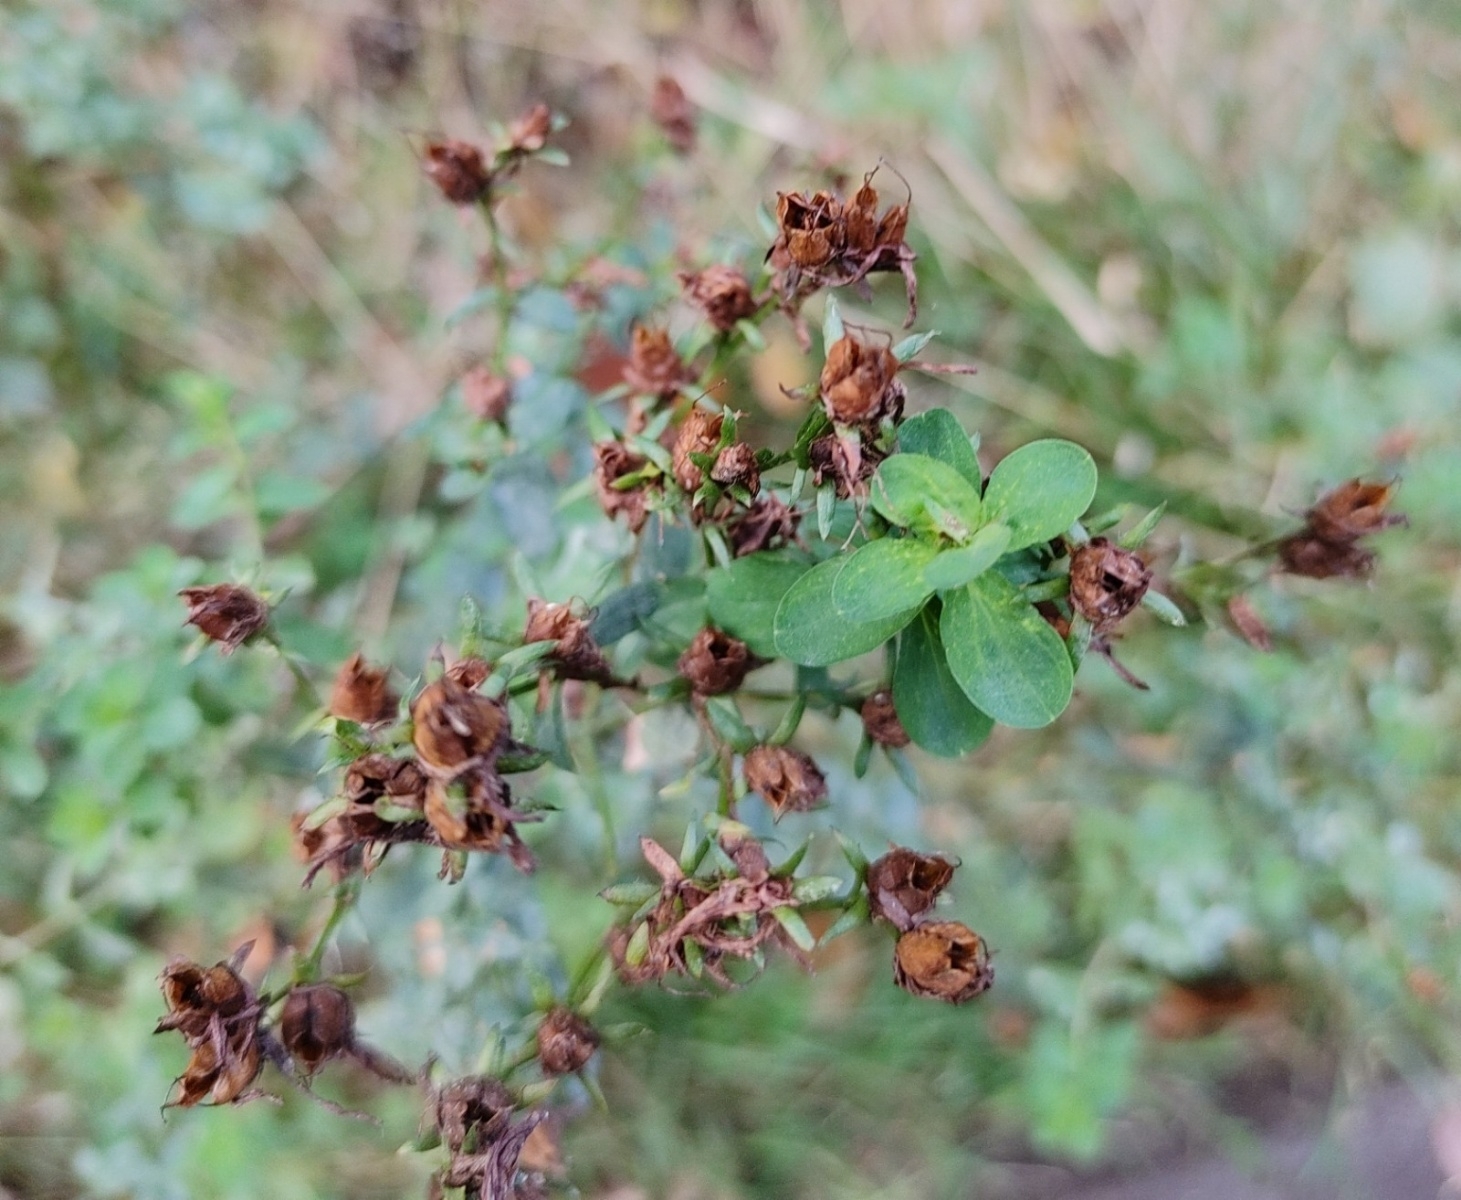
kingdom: Plantae
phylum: Tracheophyta
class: Magnoliopsida
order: Malpighiales
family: Hypericaceae
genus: Hypericum
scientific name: Hypericum perforatum
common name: Common st. johnswort
